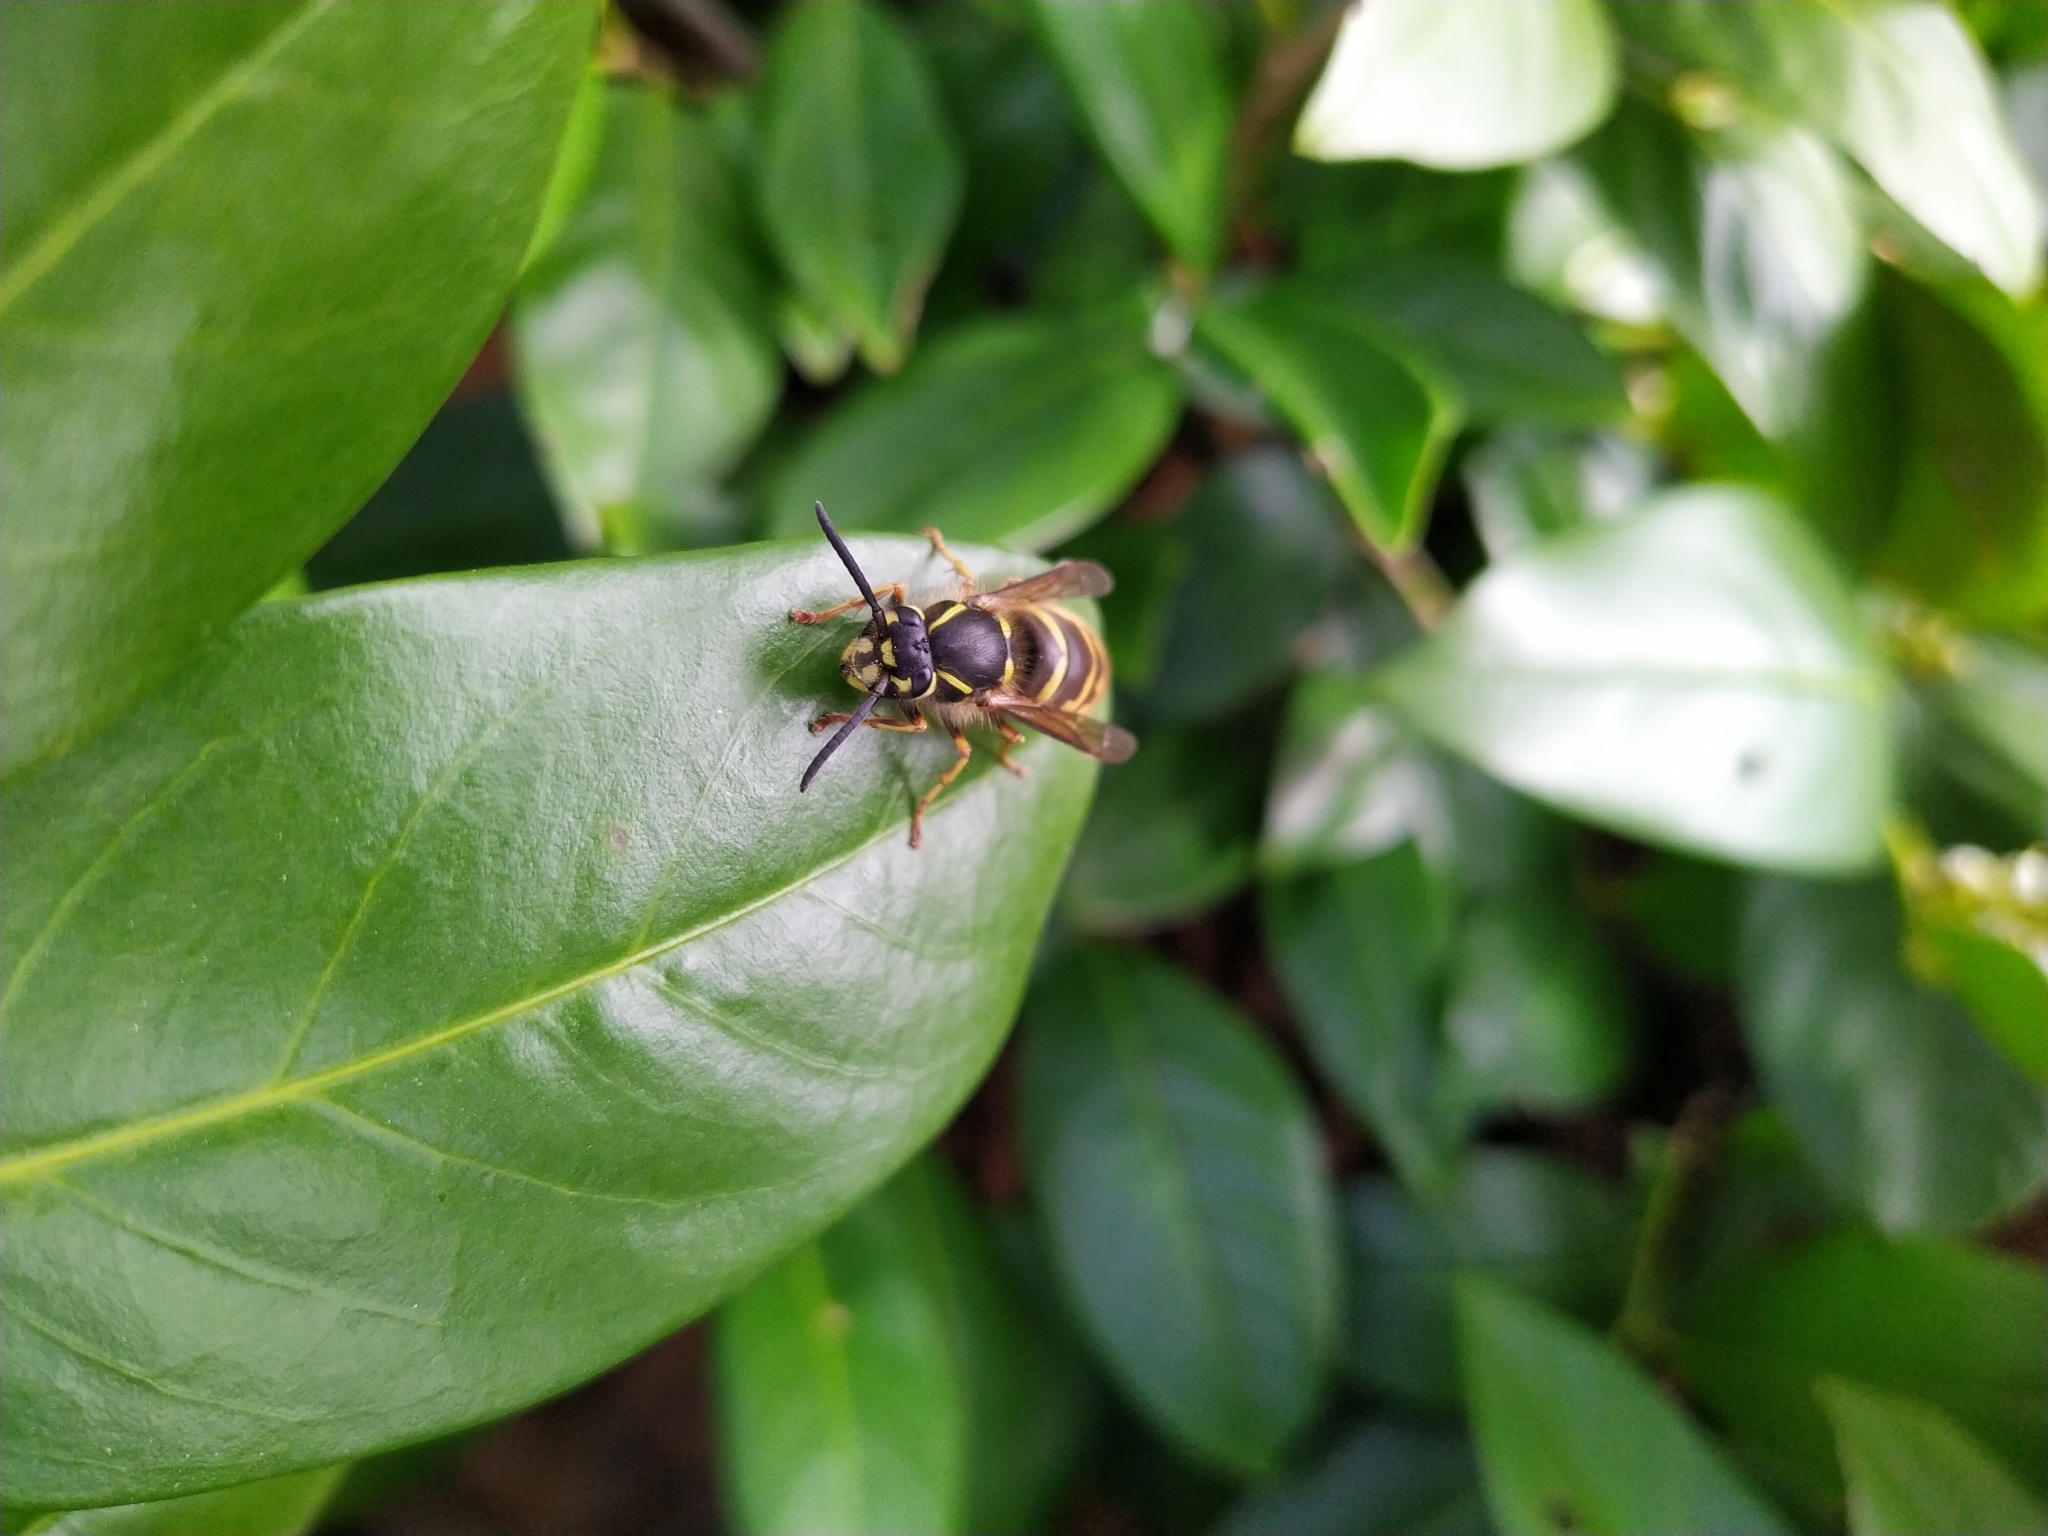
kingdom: Animalia
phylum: Arthropoda
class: Insecta
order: Hymenoptera
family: Vespidae
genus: Vespula
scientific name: Vespula vulgaris
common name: Common wasp
